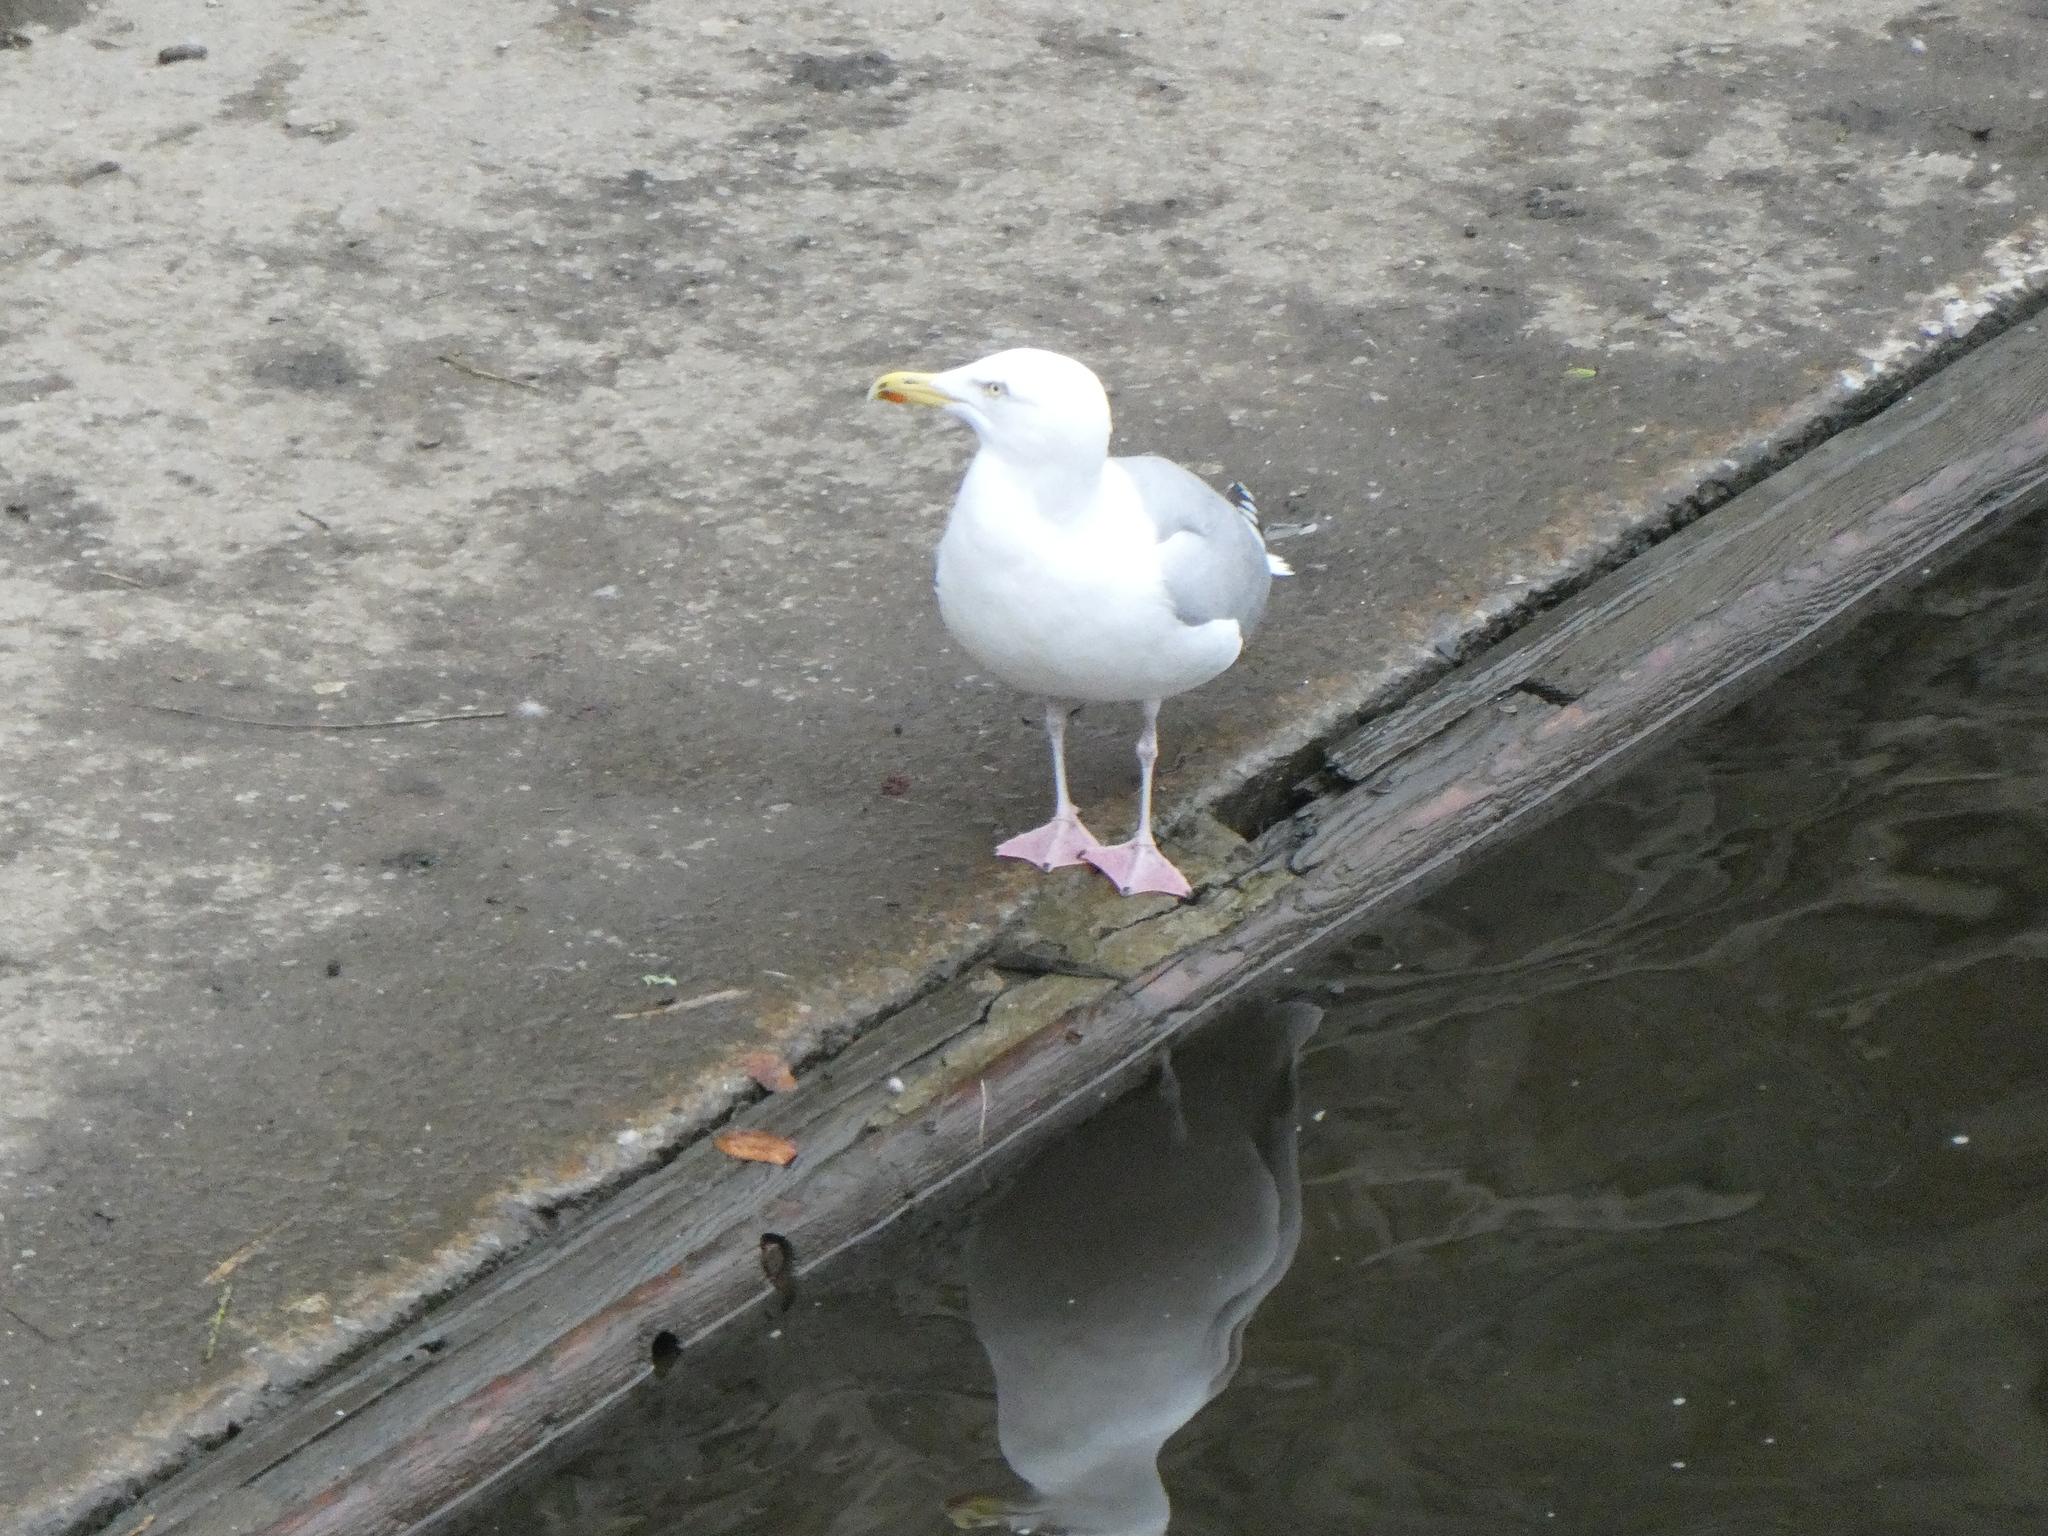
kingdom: Animalia
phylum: Chordata
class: Aves
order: Charadriiformes
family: Laridae
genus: Larus
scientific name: Larus argentatus
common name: Herring gull
